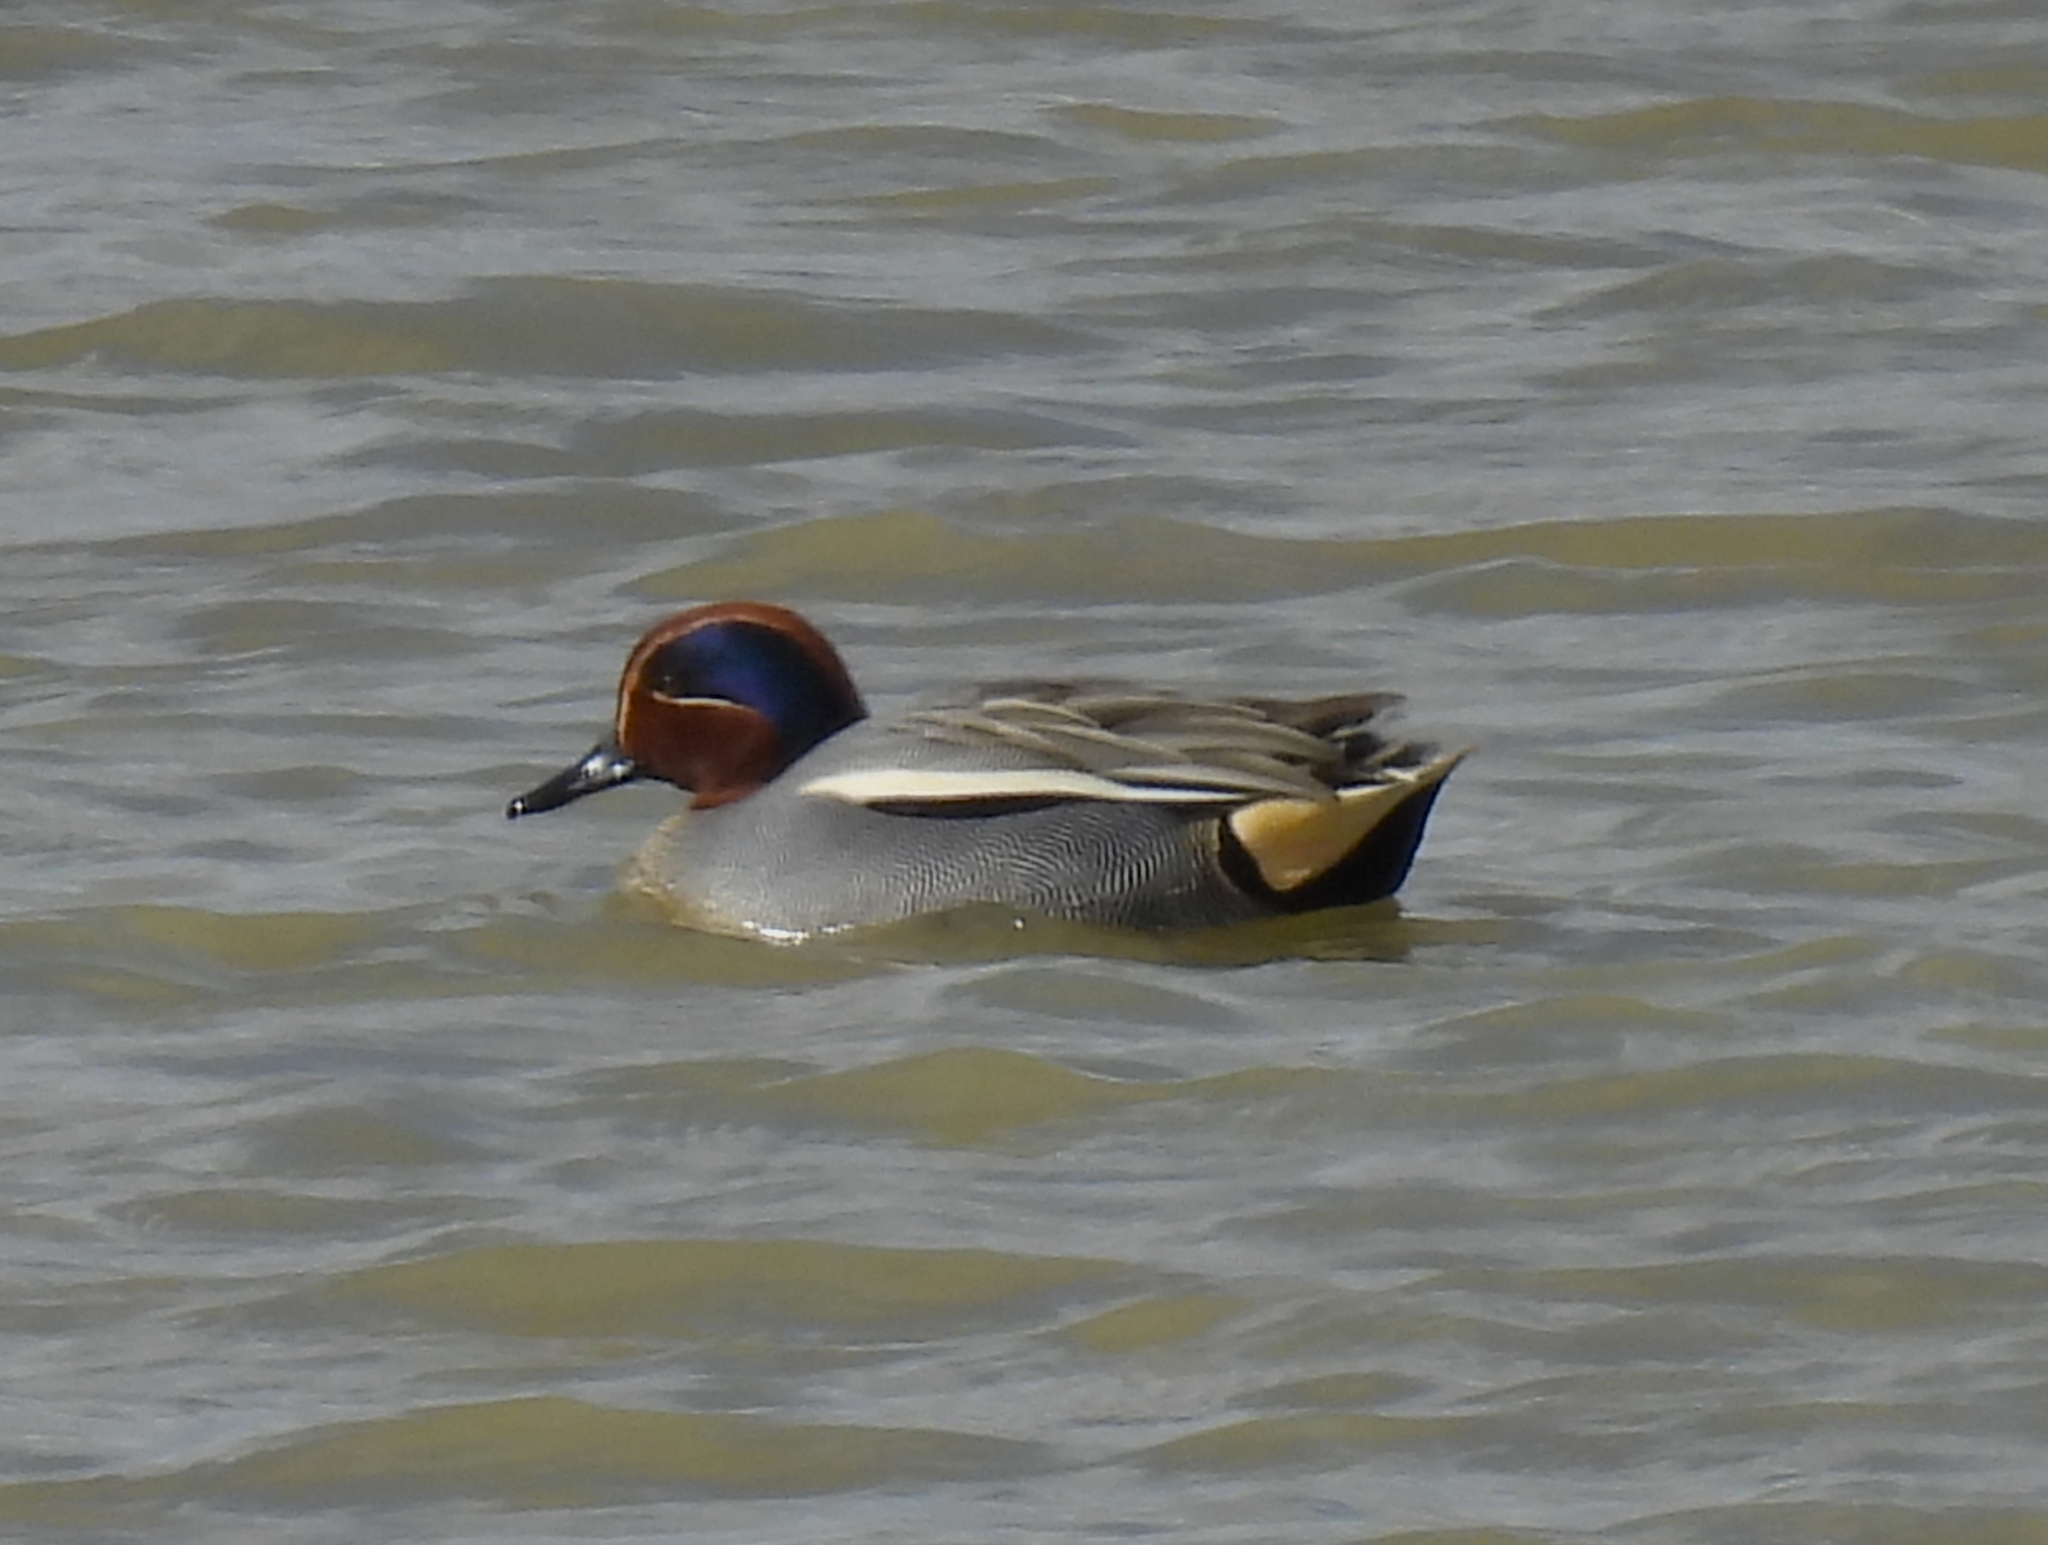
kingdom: Animalia
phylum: Chordata
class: Aves
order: Anseriformes
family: Anatidae
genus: Anas
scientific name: Anas crecca
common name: Eurasian teal
